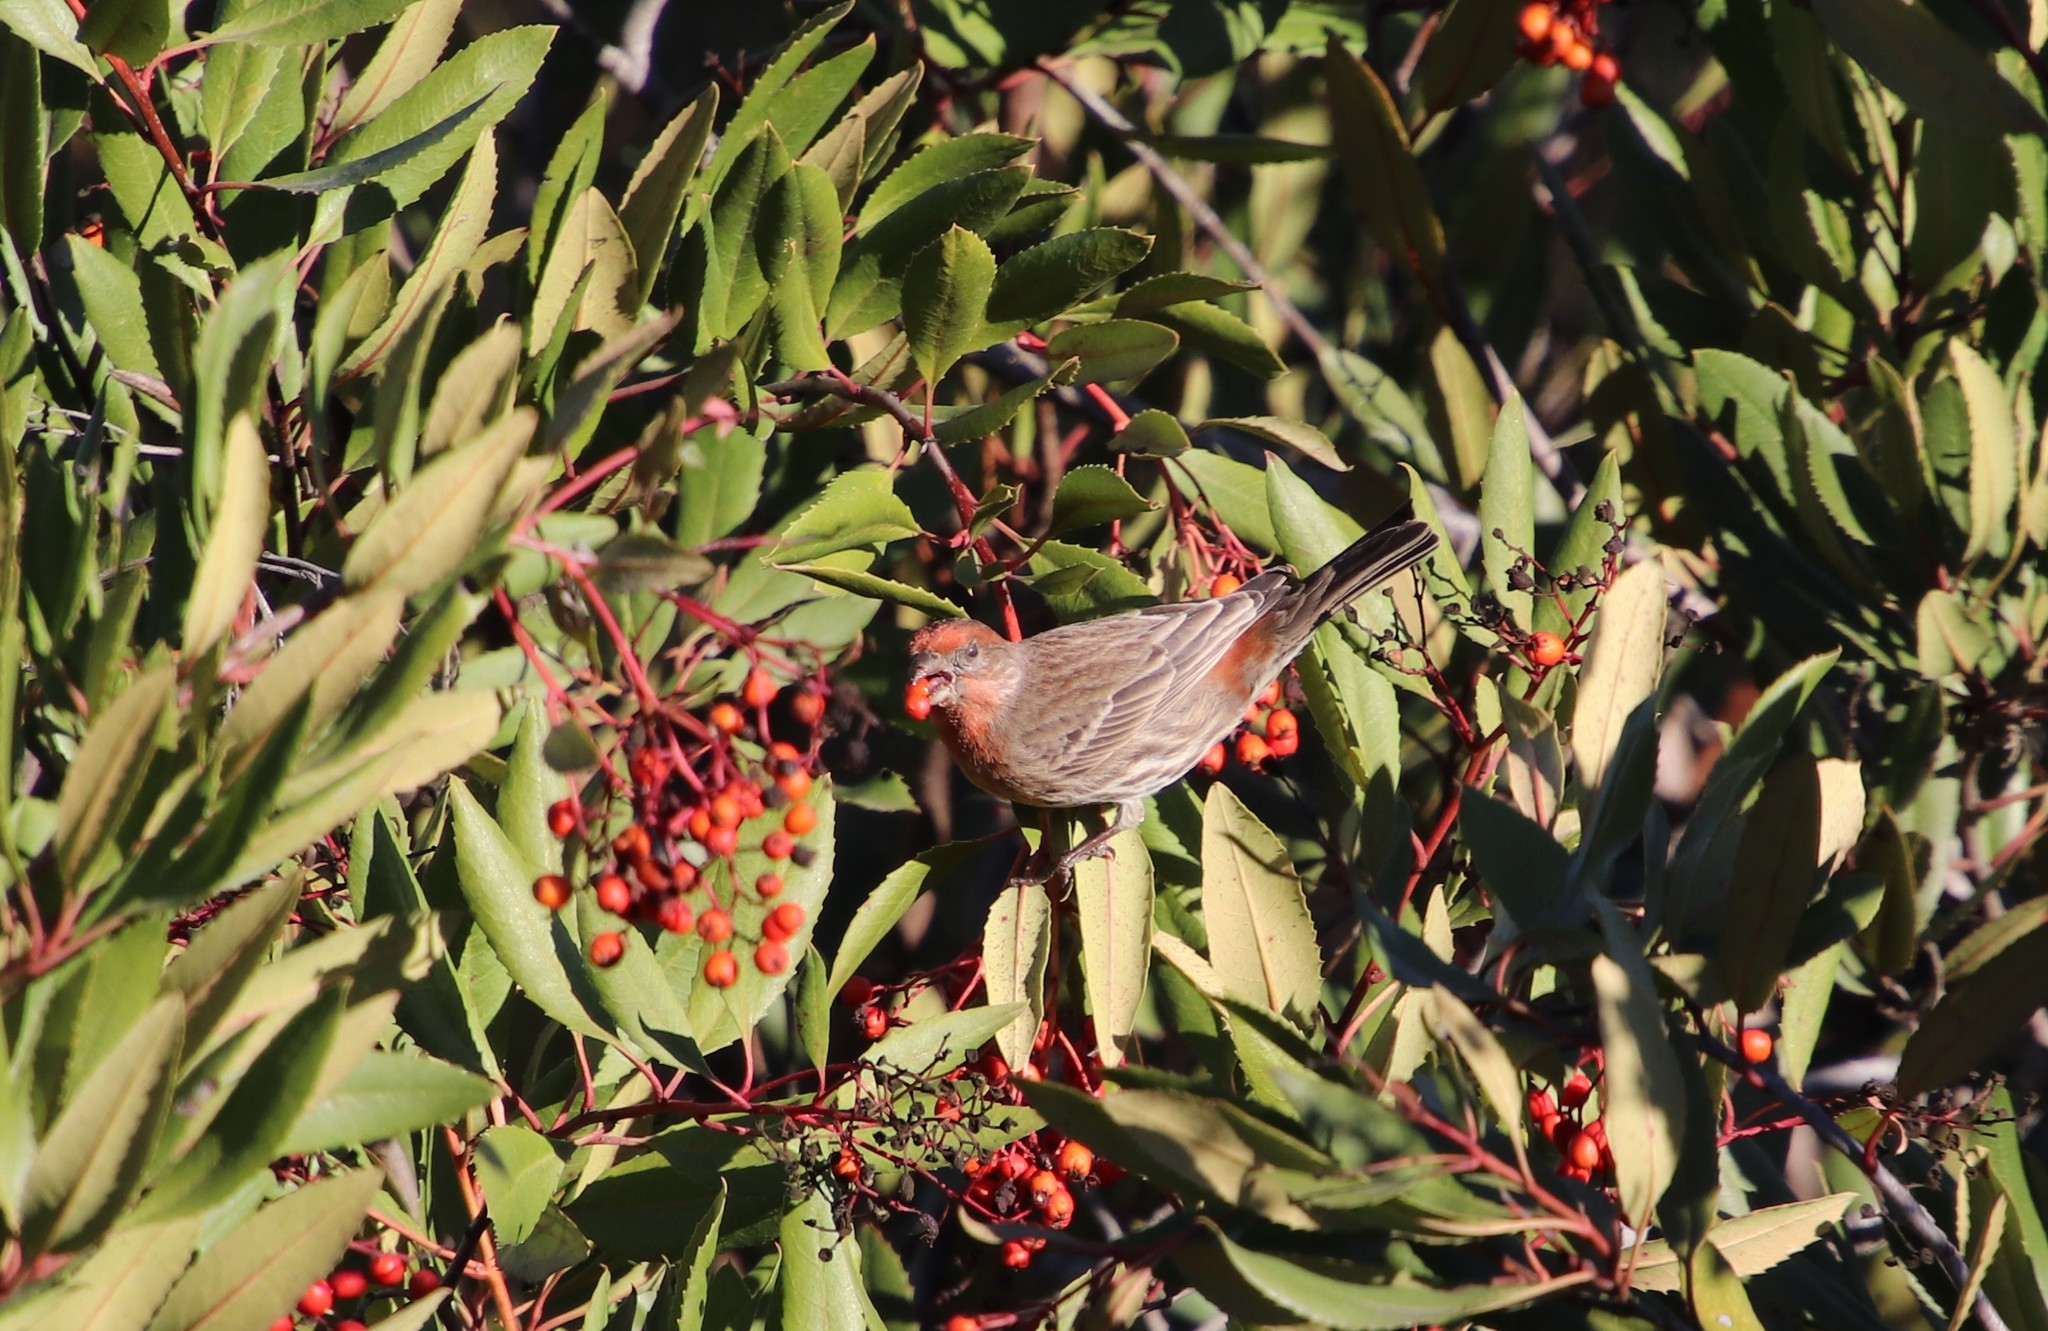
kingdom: Animalia
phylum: Chordata
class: Aves
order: Passeriformes
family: Fringillidae
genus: Haemorhous
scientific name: Haemorhous mexicanus
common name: House finch
